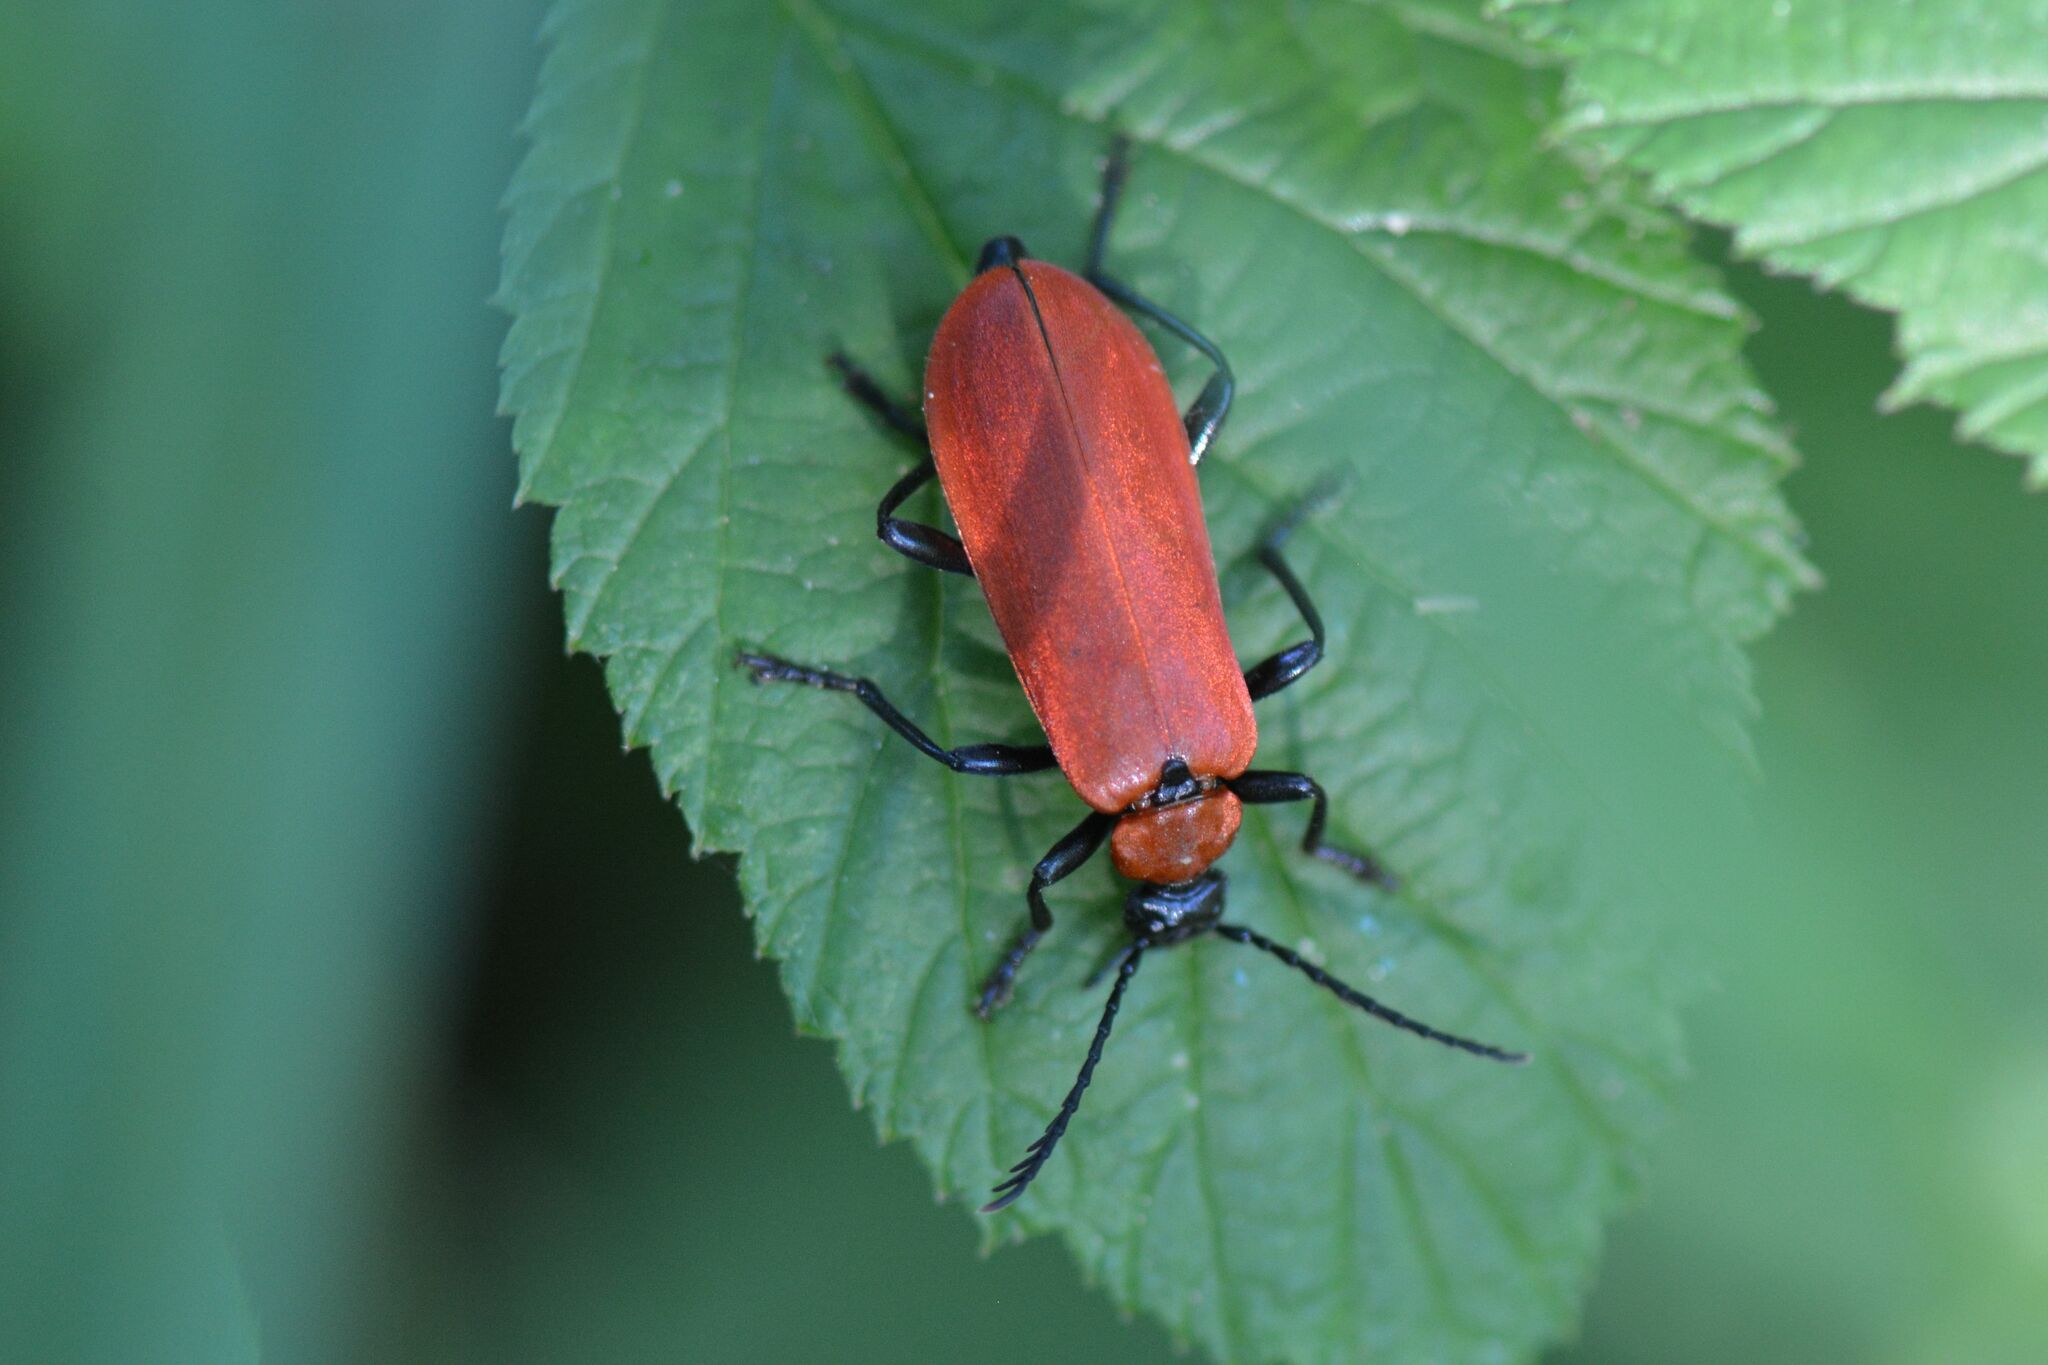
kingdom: Animalia
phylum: Arthropoda
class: Insecta
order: Coleoptera
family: Pyrochroidae
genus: Pyrochroa
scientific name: Pyrochroa coccinea
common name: Black-headed cardinal beetle
